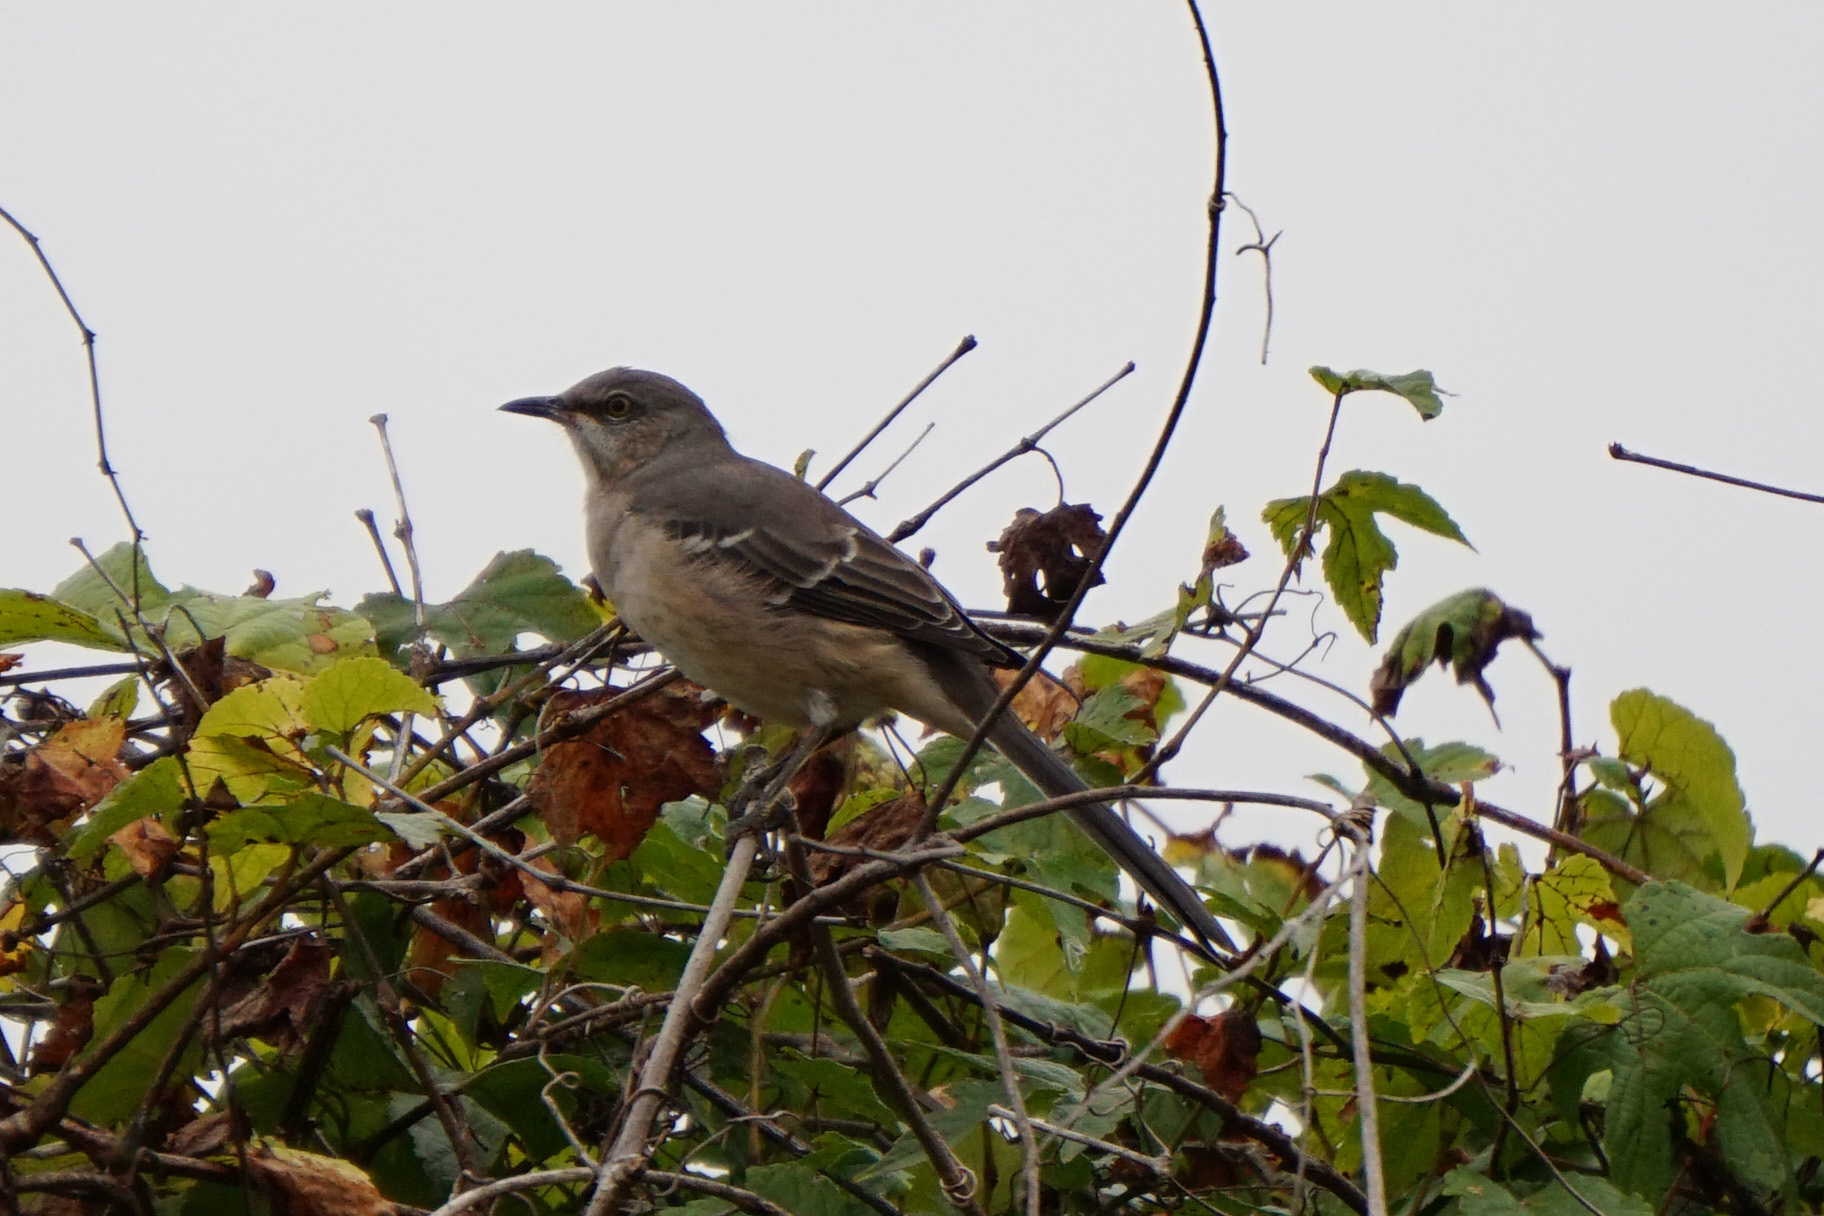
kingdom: Animalia
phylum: Chordata
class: Aves
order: Passeriformes
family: Mimidae
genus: Mimus
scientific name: Mimus polyglottos
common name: Northern mockingbird
